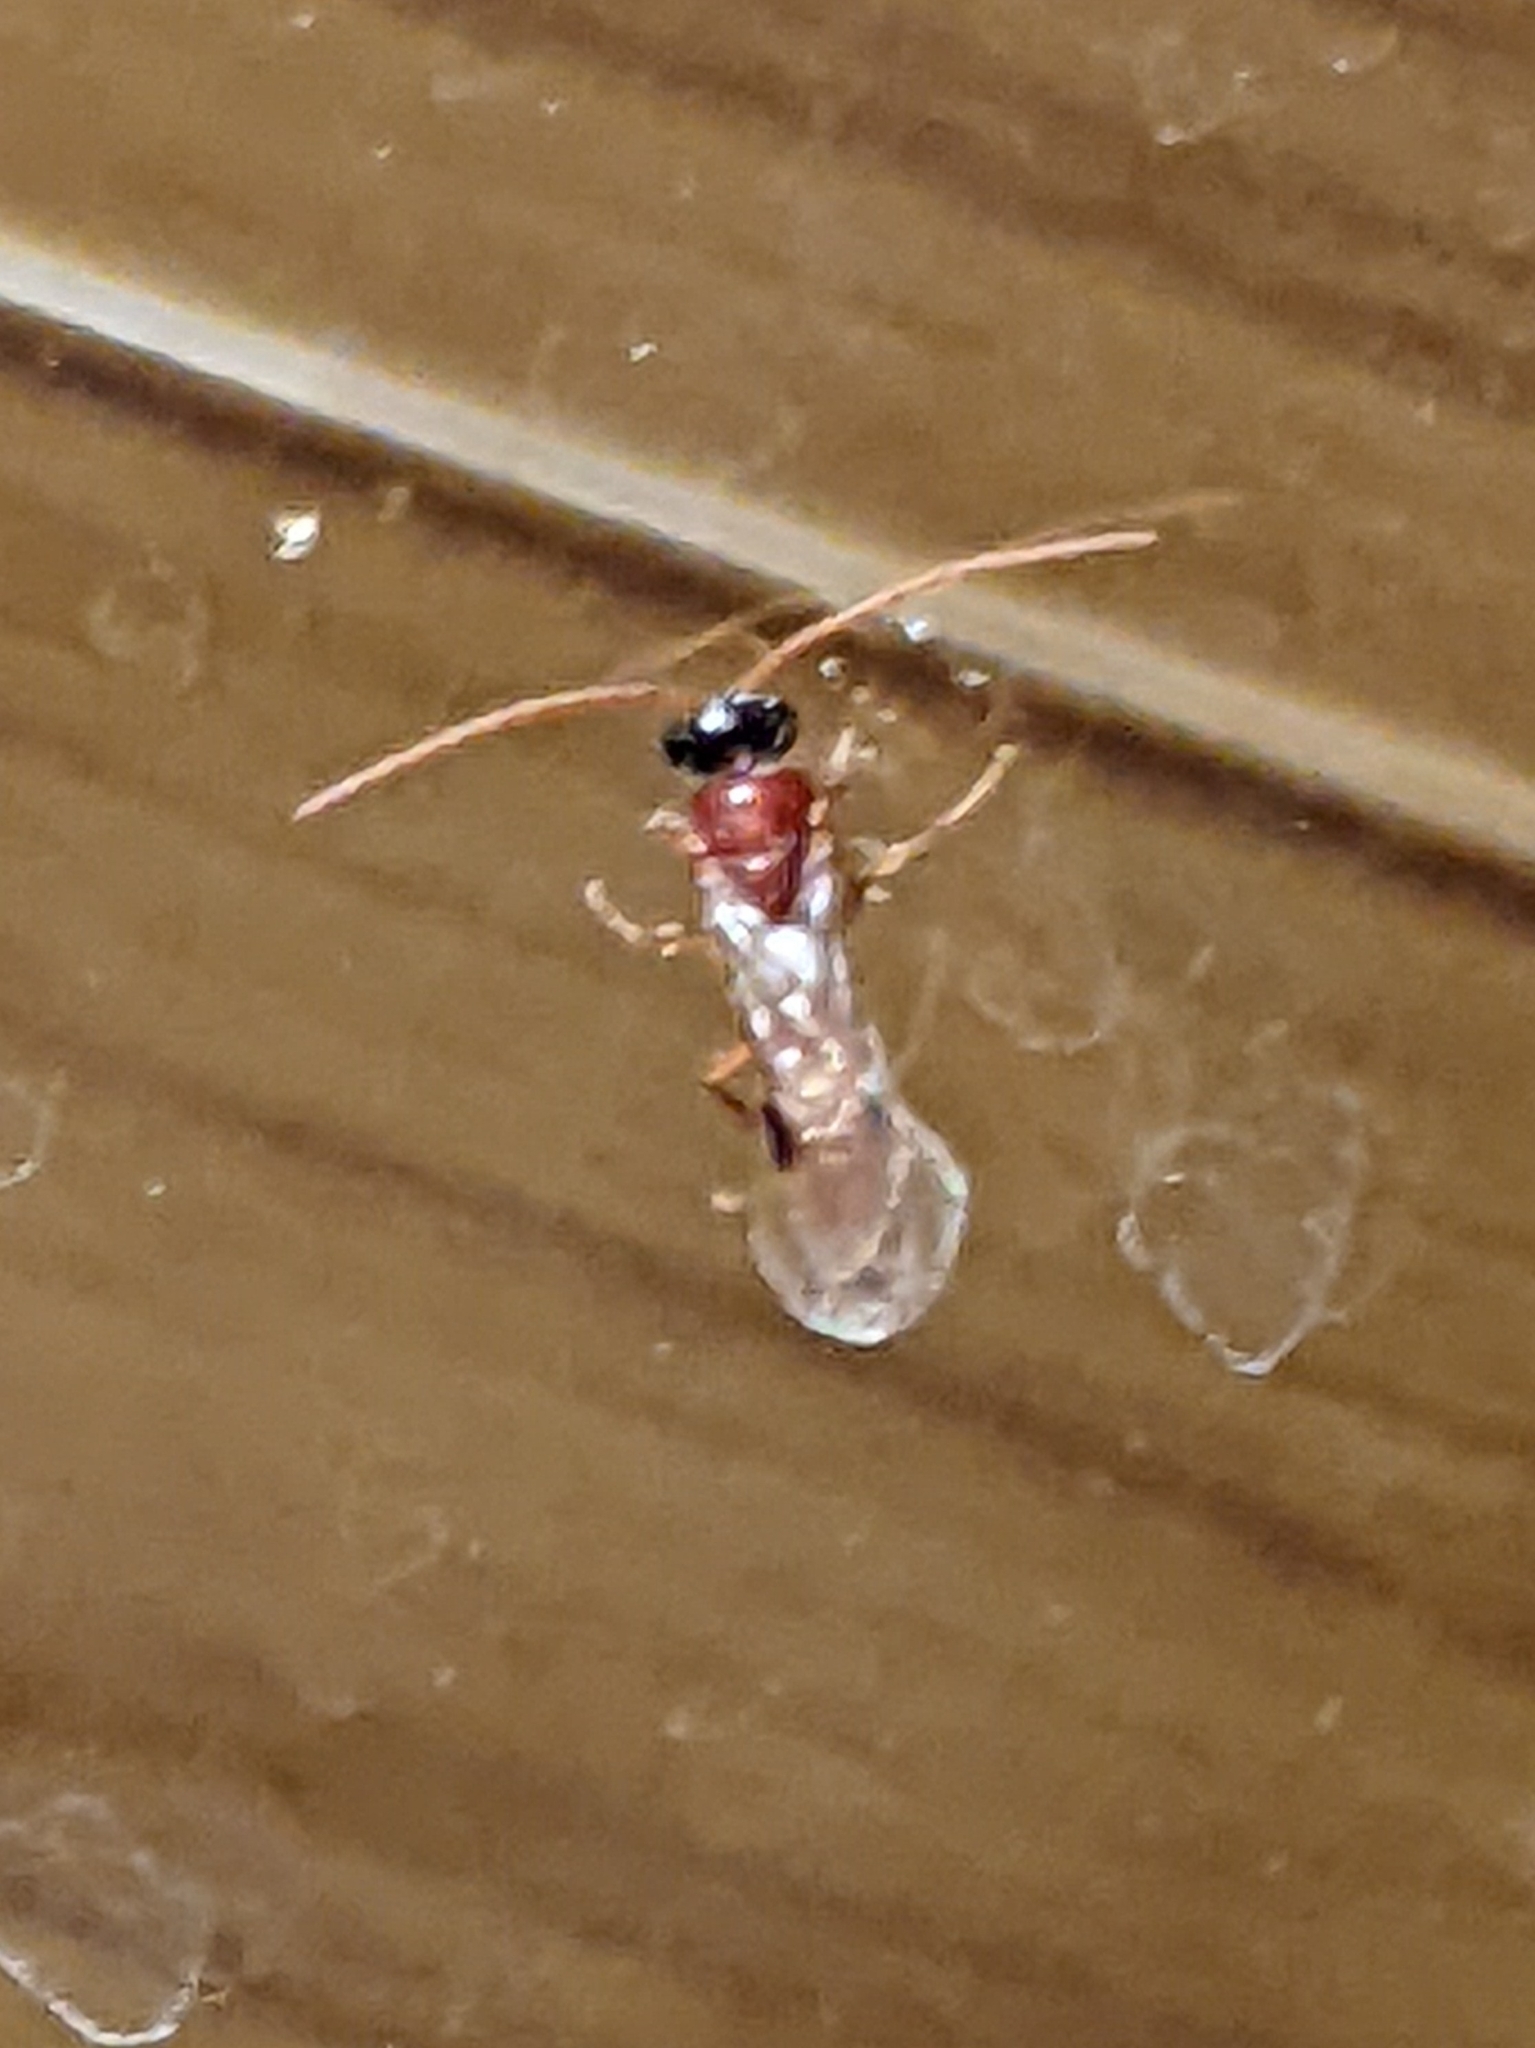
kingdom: Animalia
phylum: Arthropoda
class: Insecta
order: Hymenoptera
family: Tiphiidae
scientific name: Tiphiidae
